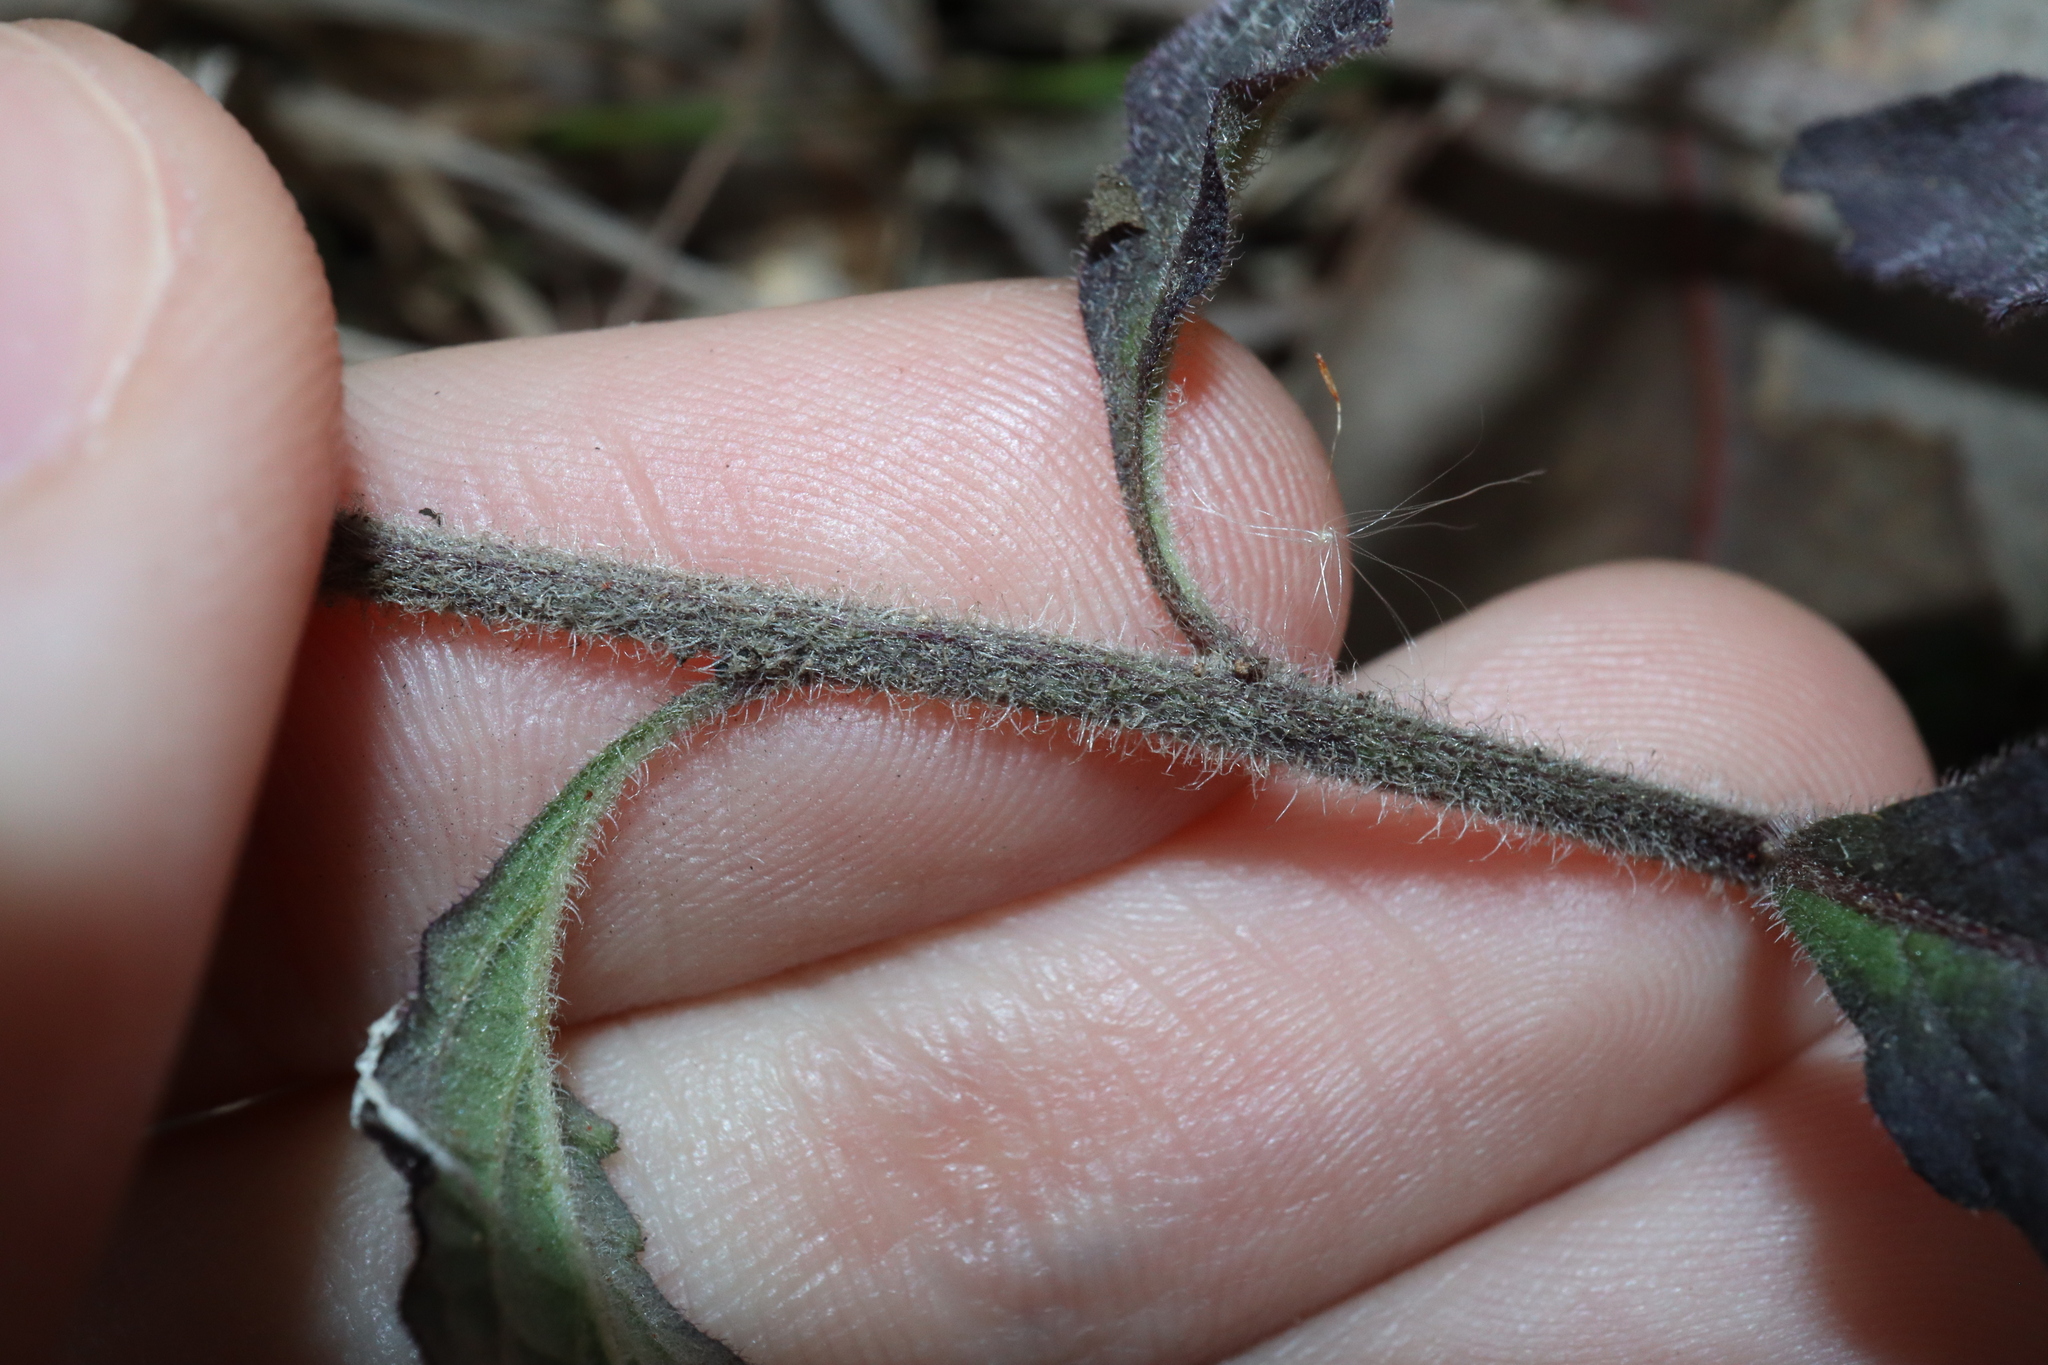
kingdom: Plantae
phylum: Tracheophyta
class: Magnoliopsida
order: Asterales
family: Asteraceae
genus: Cyanthillium
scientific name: Cyanthillium cinereum
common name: Little ironweed
